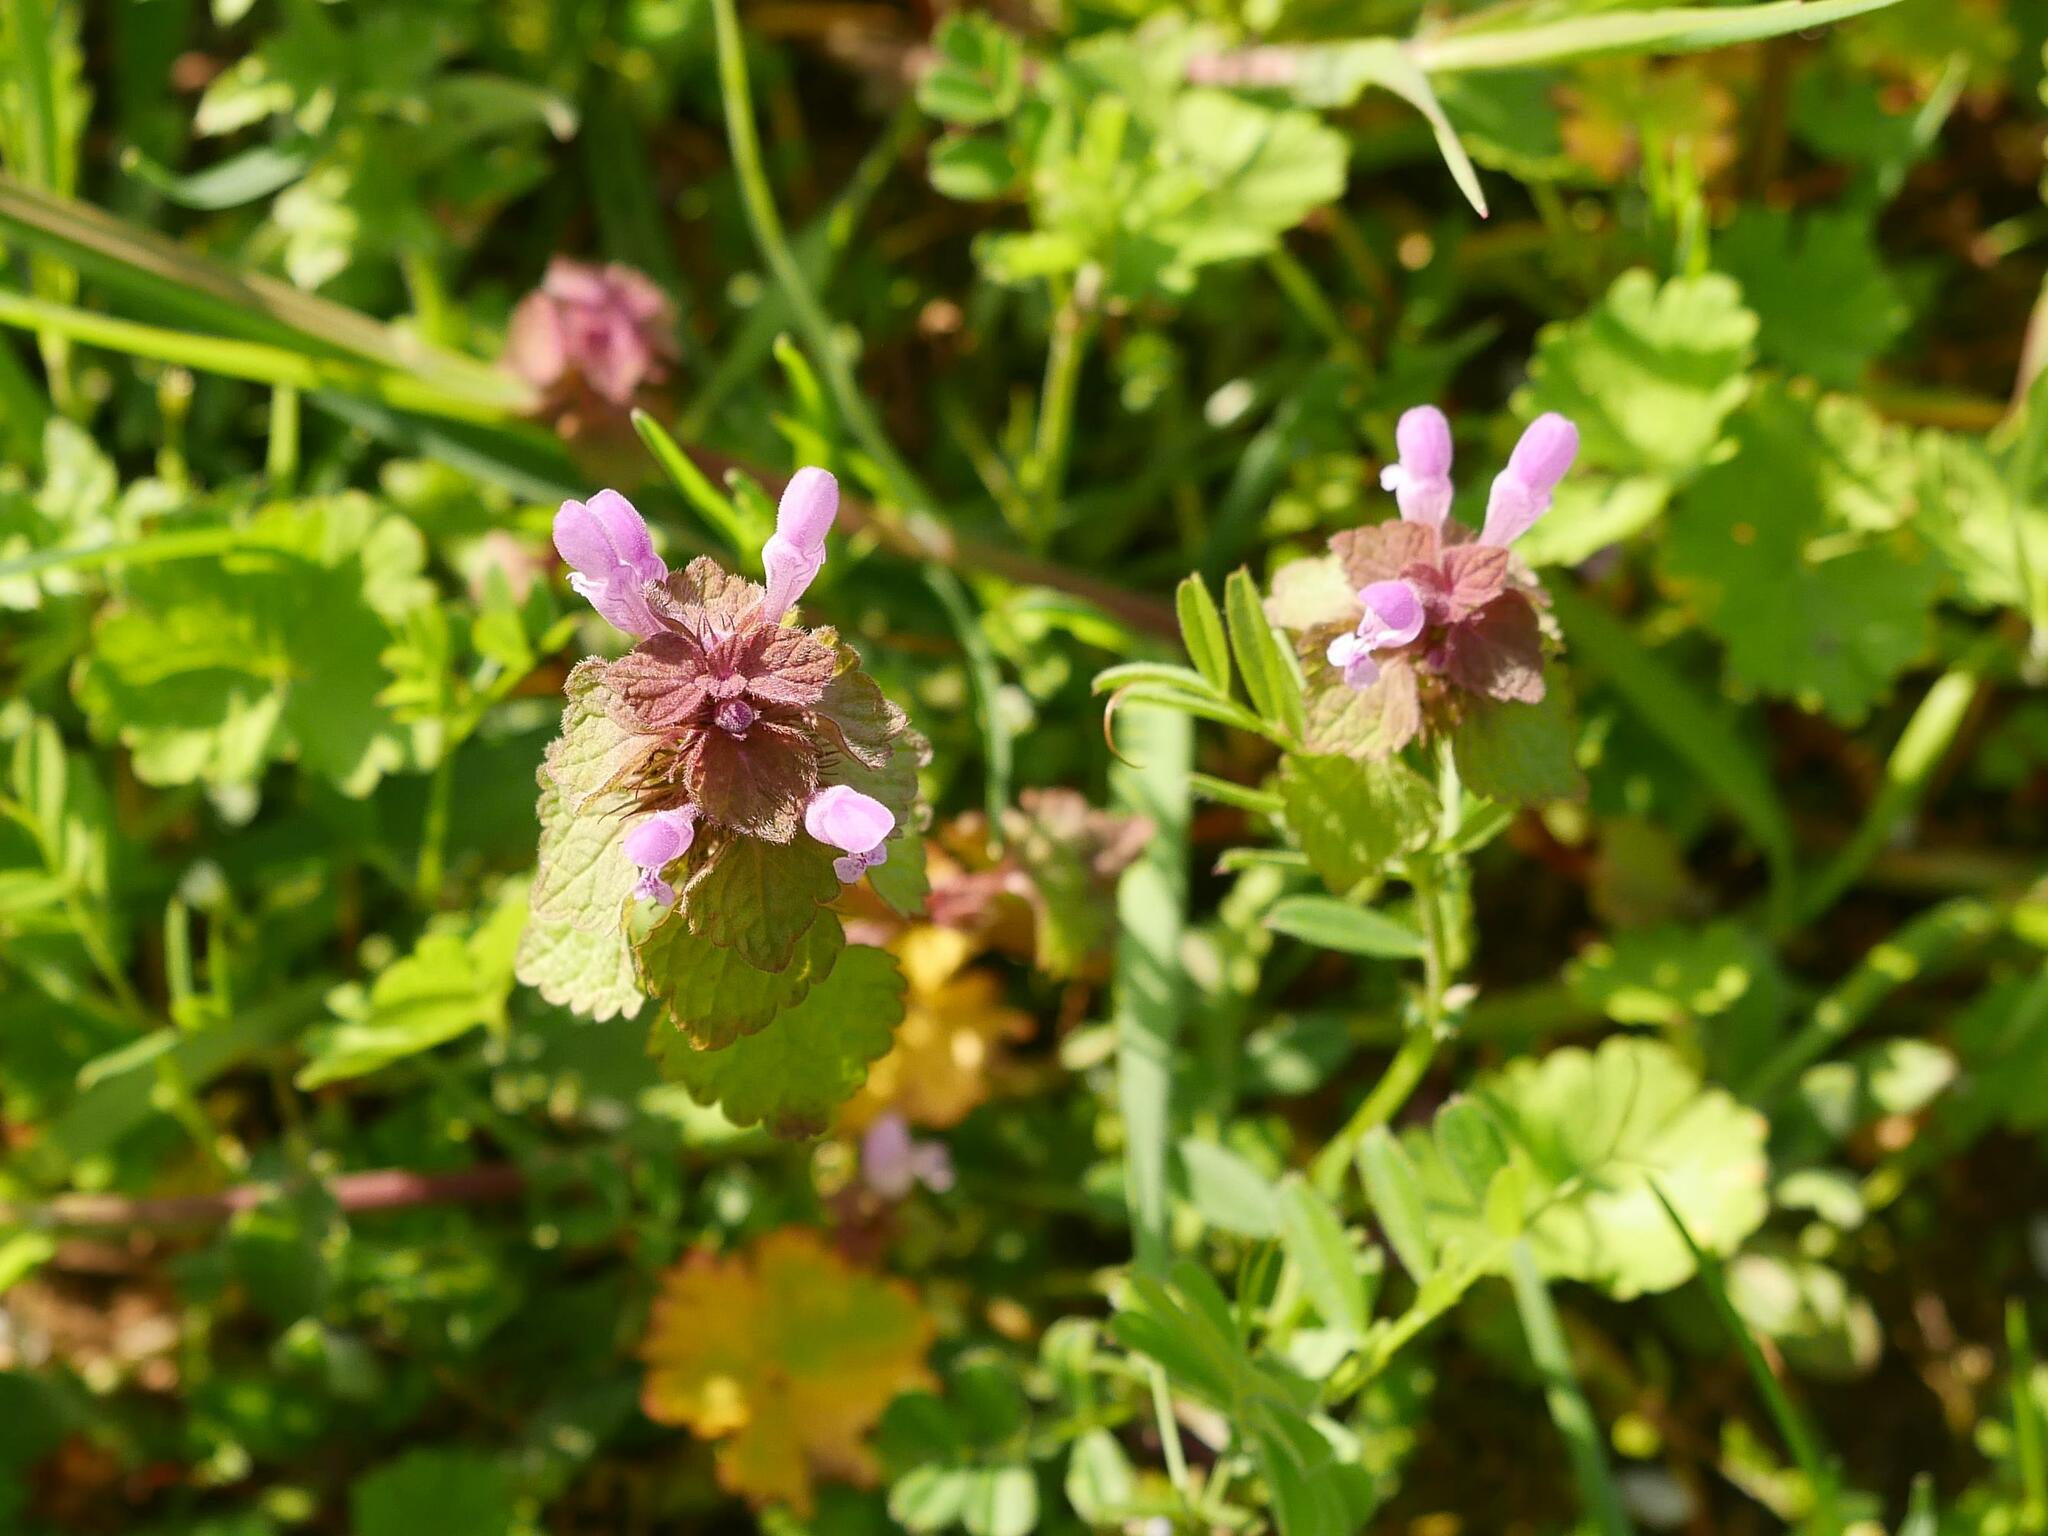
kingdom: Plantae
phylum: Tracheophyta
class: Magnoliopsida
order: Lamiales
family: Lamiaceae
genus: Lamium
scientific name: Lamium purpureum
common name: Red dead-nettle
